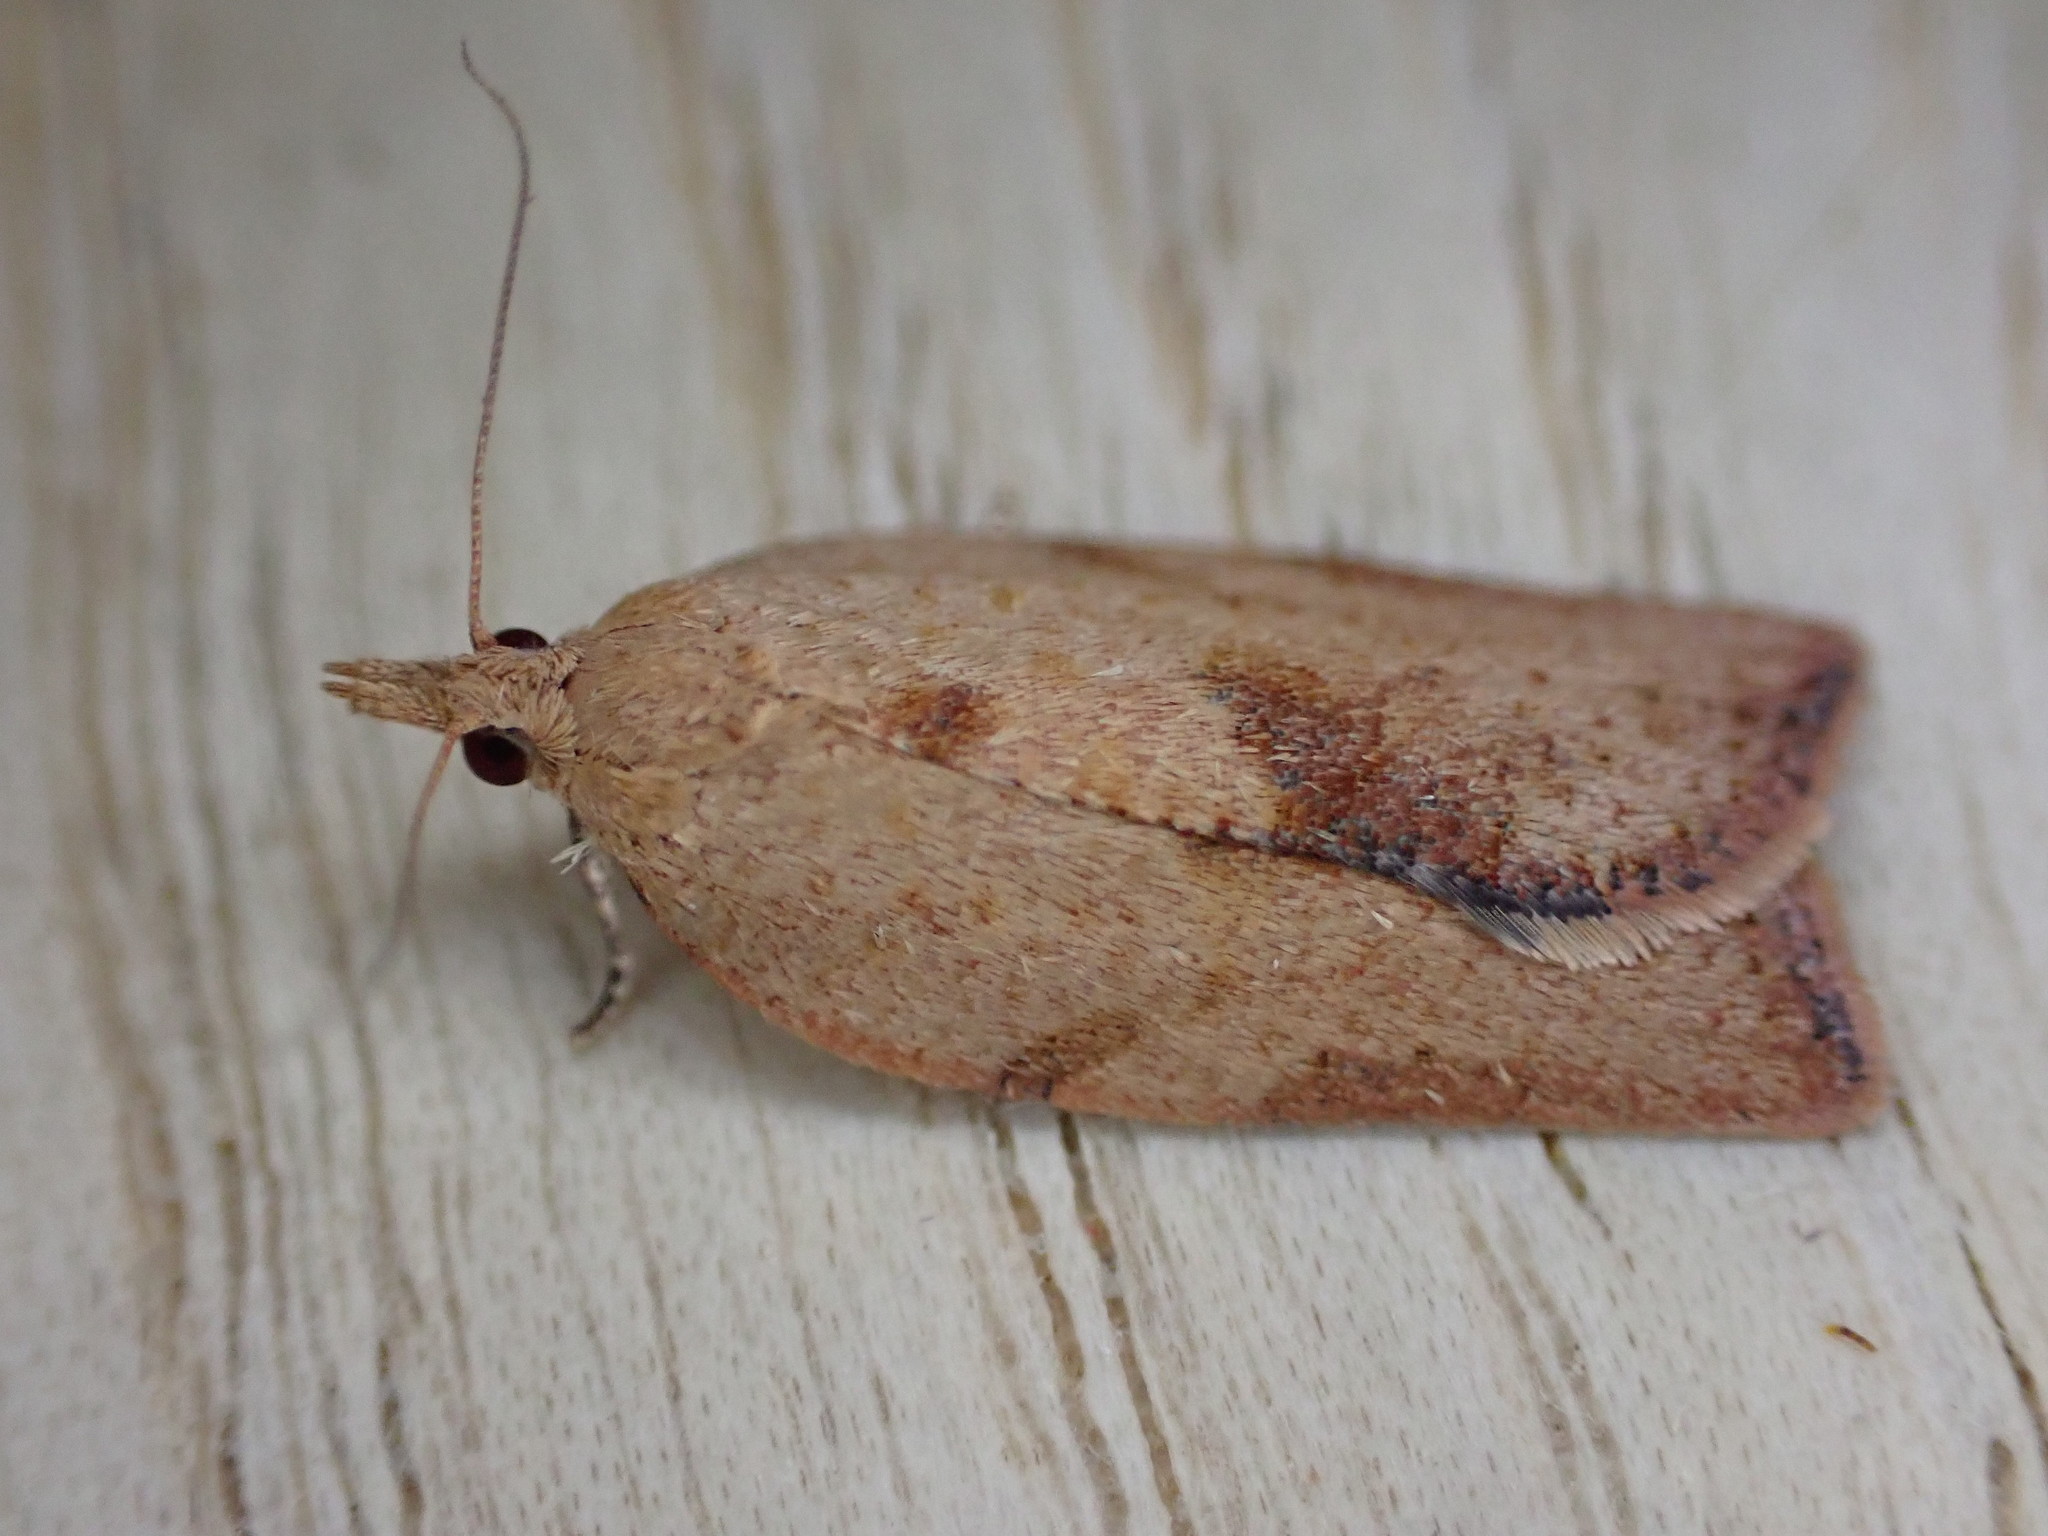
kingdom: Animalia
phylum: Arthropoda
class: Insecta
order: Lepidoptera
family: Tortricidae
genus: Epiphyas
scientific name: Epiphyas postvittana
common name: Light brown apple moth
